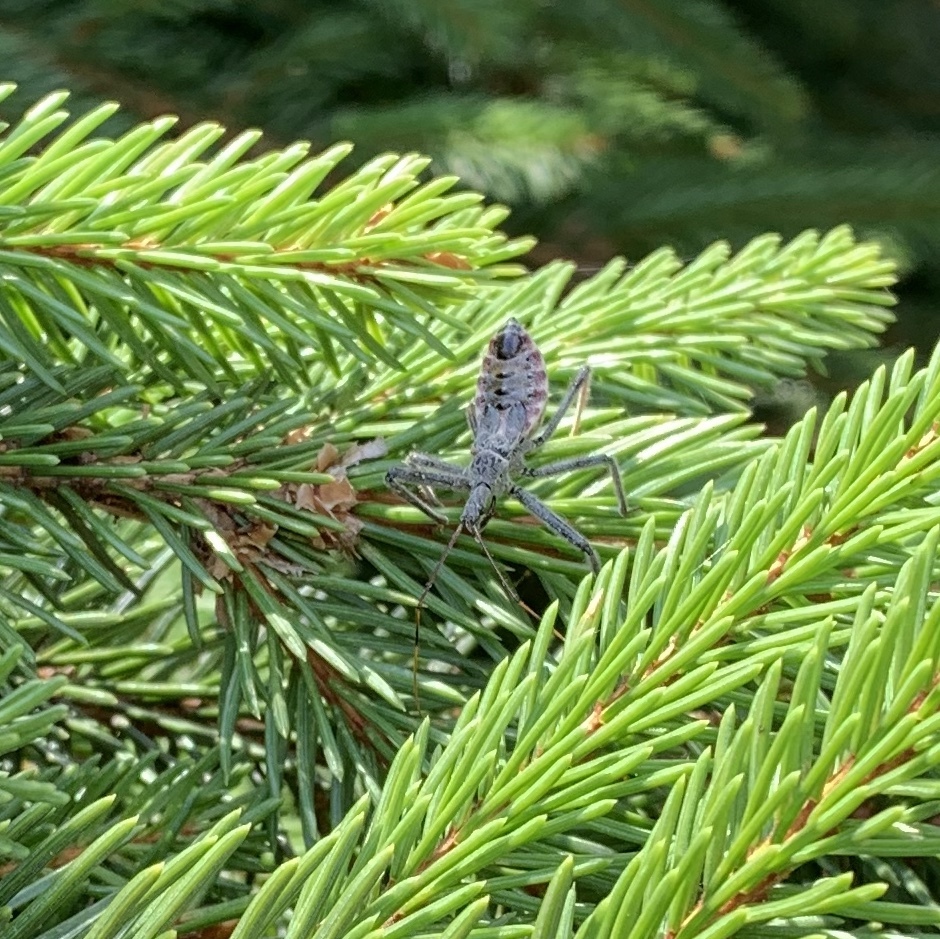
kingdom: Animalia
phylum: Arthropoda
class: Insecta
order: Hemiptera
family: Reduviidae
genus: Arilus
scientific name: Arilus cristatus
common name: North american wheel bug
